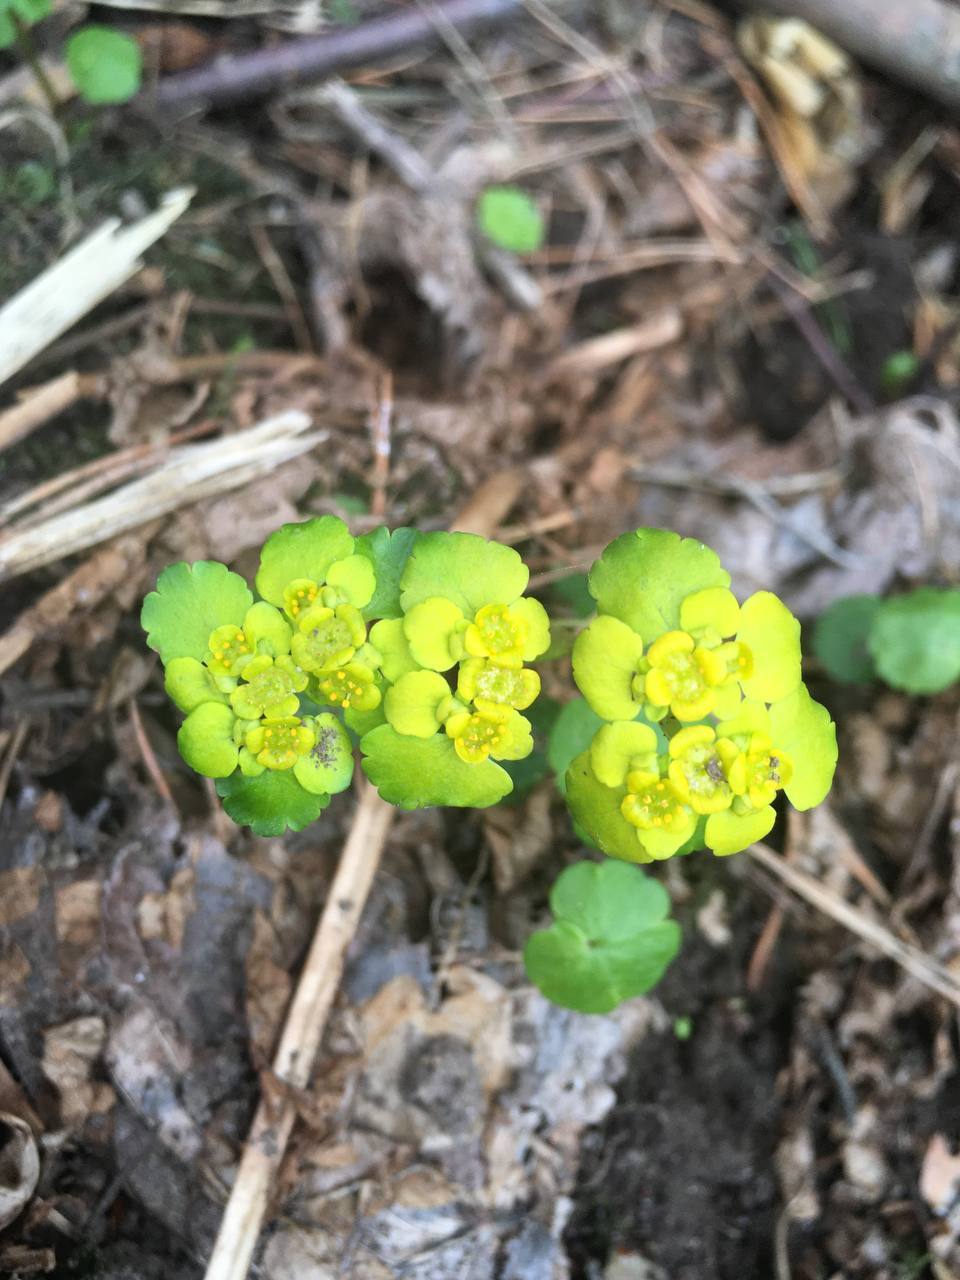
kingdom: Plantae
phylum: Tracheophyta
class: Magnoliopsida
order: Saxifragales
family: Saxifragaceae
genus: Chrysosplenium
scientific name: Chrysosplenium alternifolium
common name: Alternate-leaved golden-saxifrage
